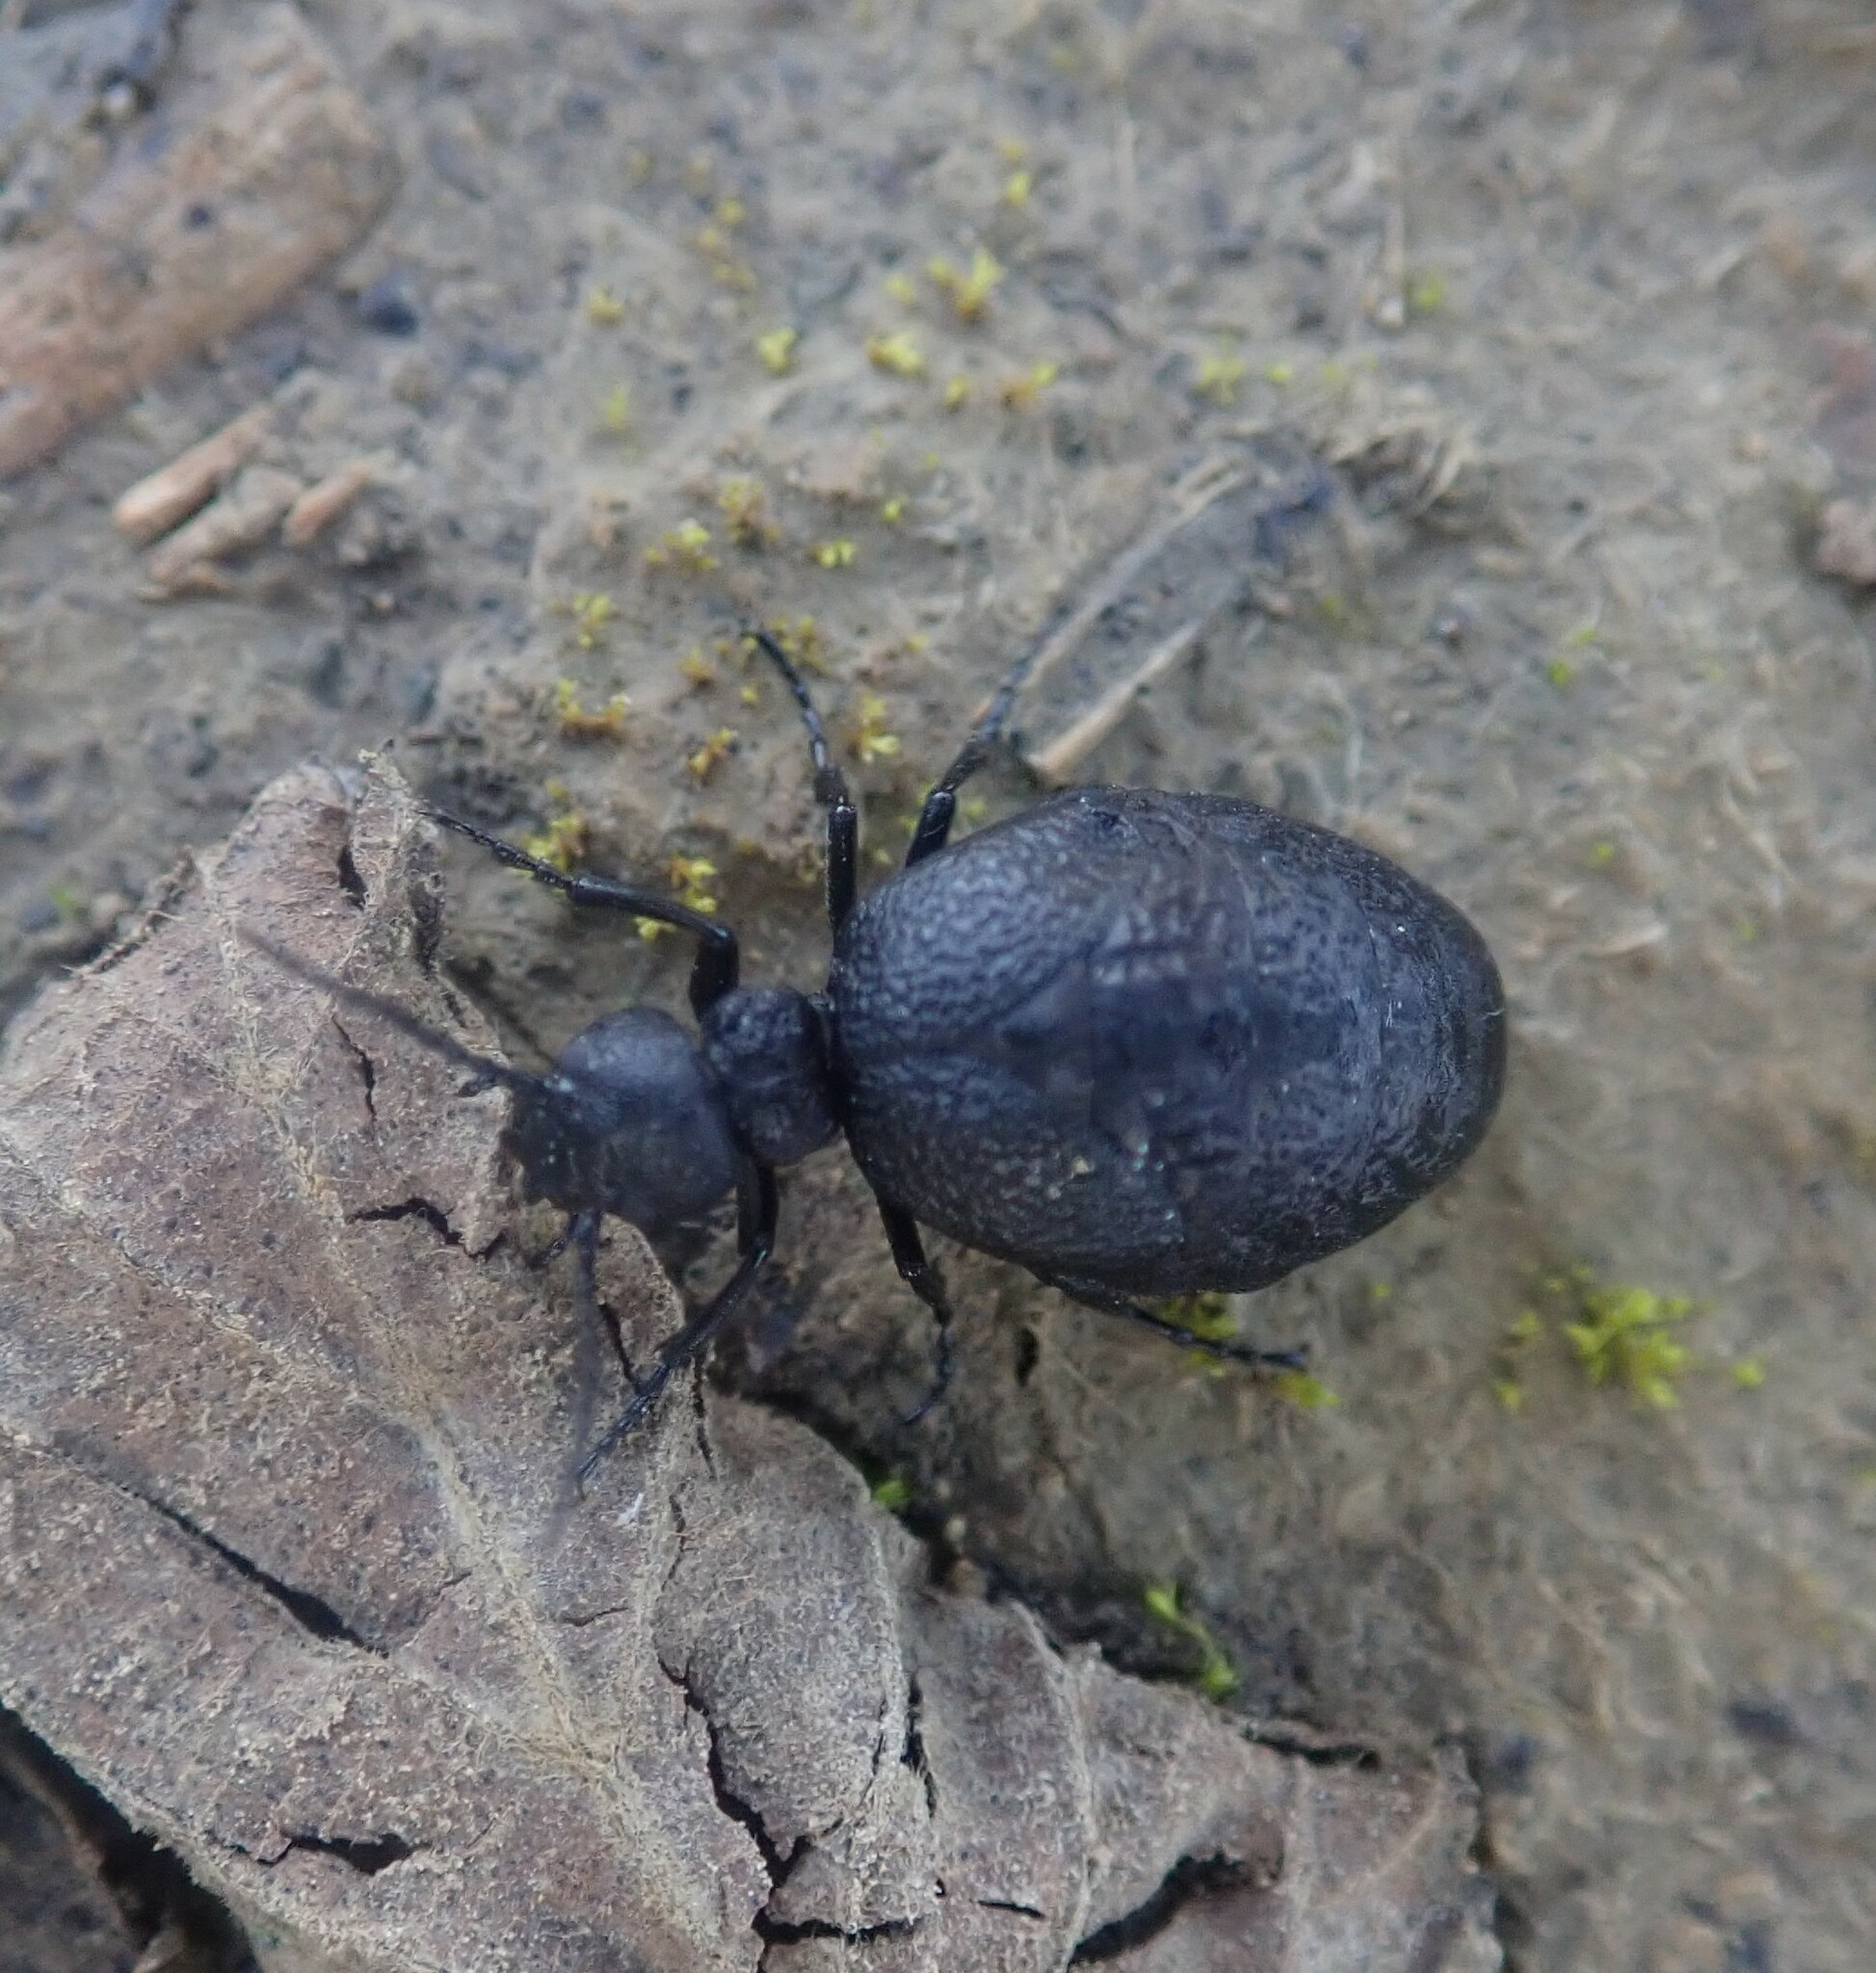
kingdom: Animalia
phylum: Arthropoda
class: Insecta
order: Coleoptera
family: Meloidae
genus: Meloe
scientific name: Meloe rugosus
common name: Rugged oil-beetle
